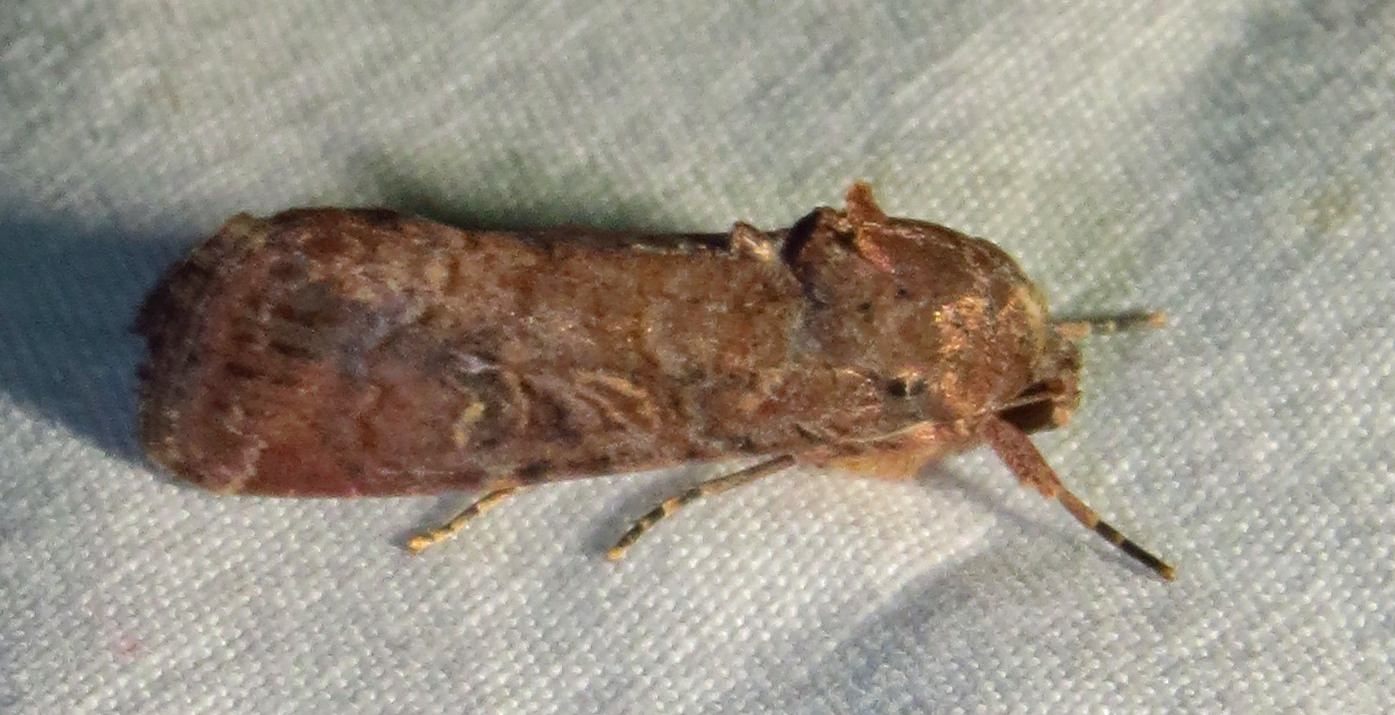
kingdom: Animalia
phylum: Arthropoda
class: Insecta
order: Lepidoptera
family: Noctuidae
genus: Spodoptera
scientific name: Spodoptera frugiperda
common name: Fall armyworm
